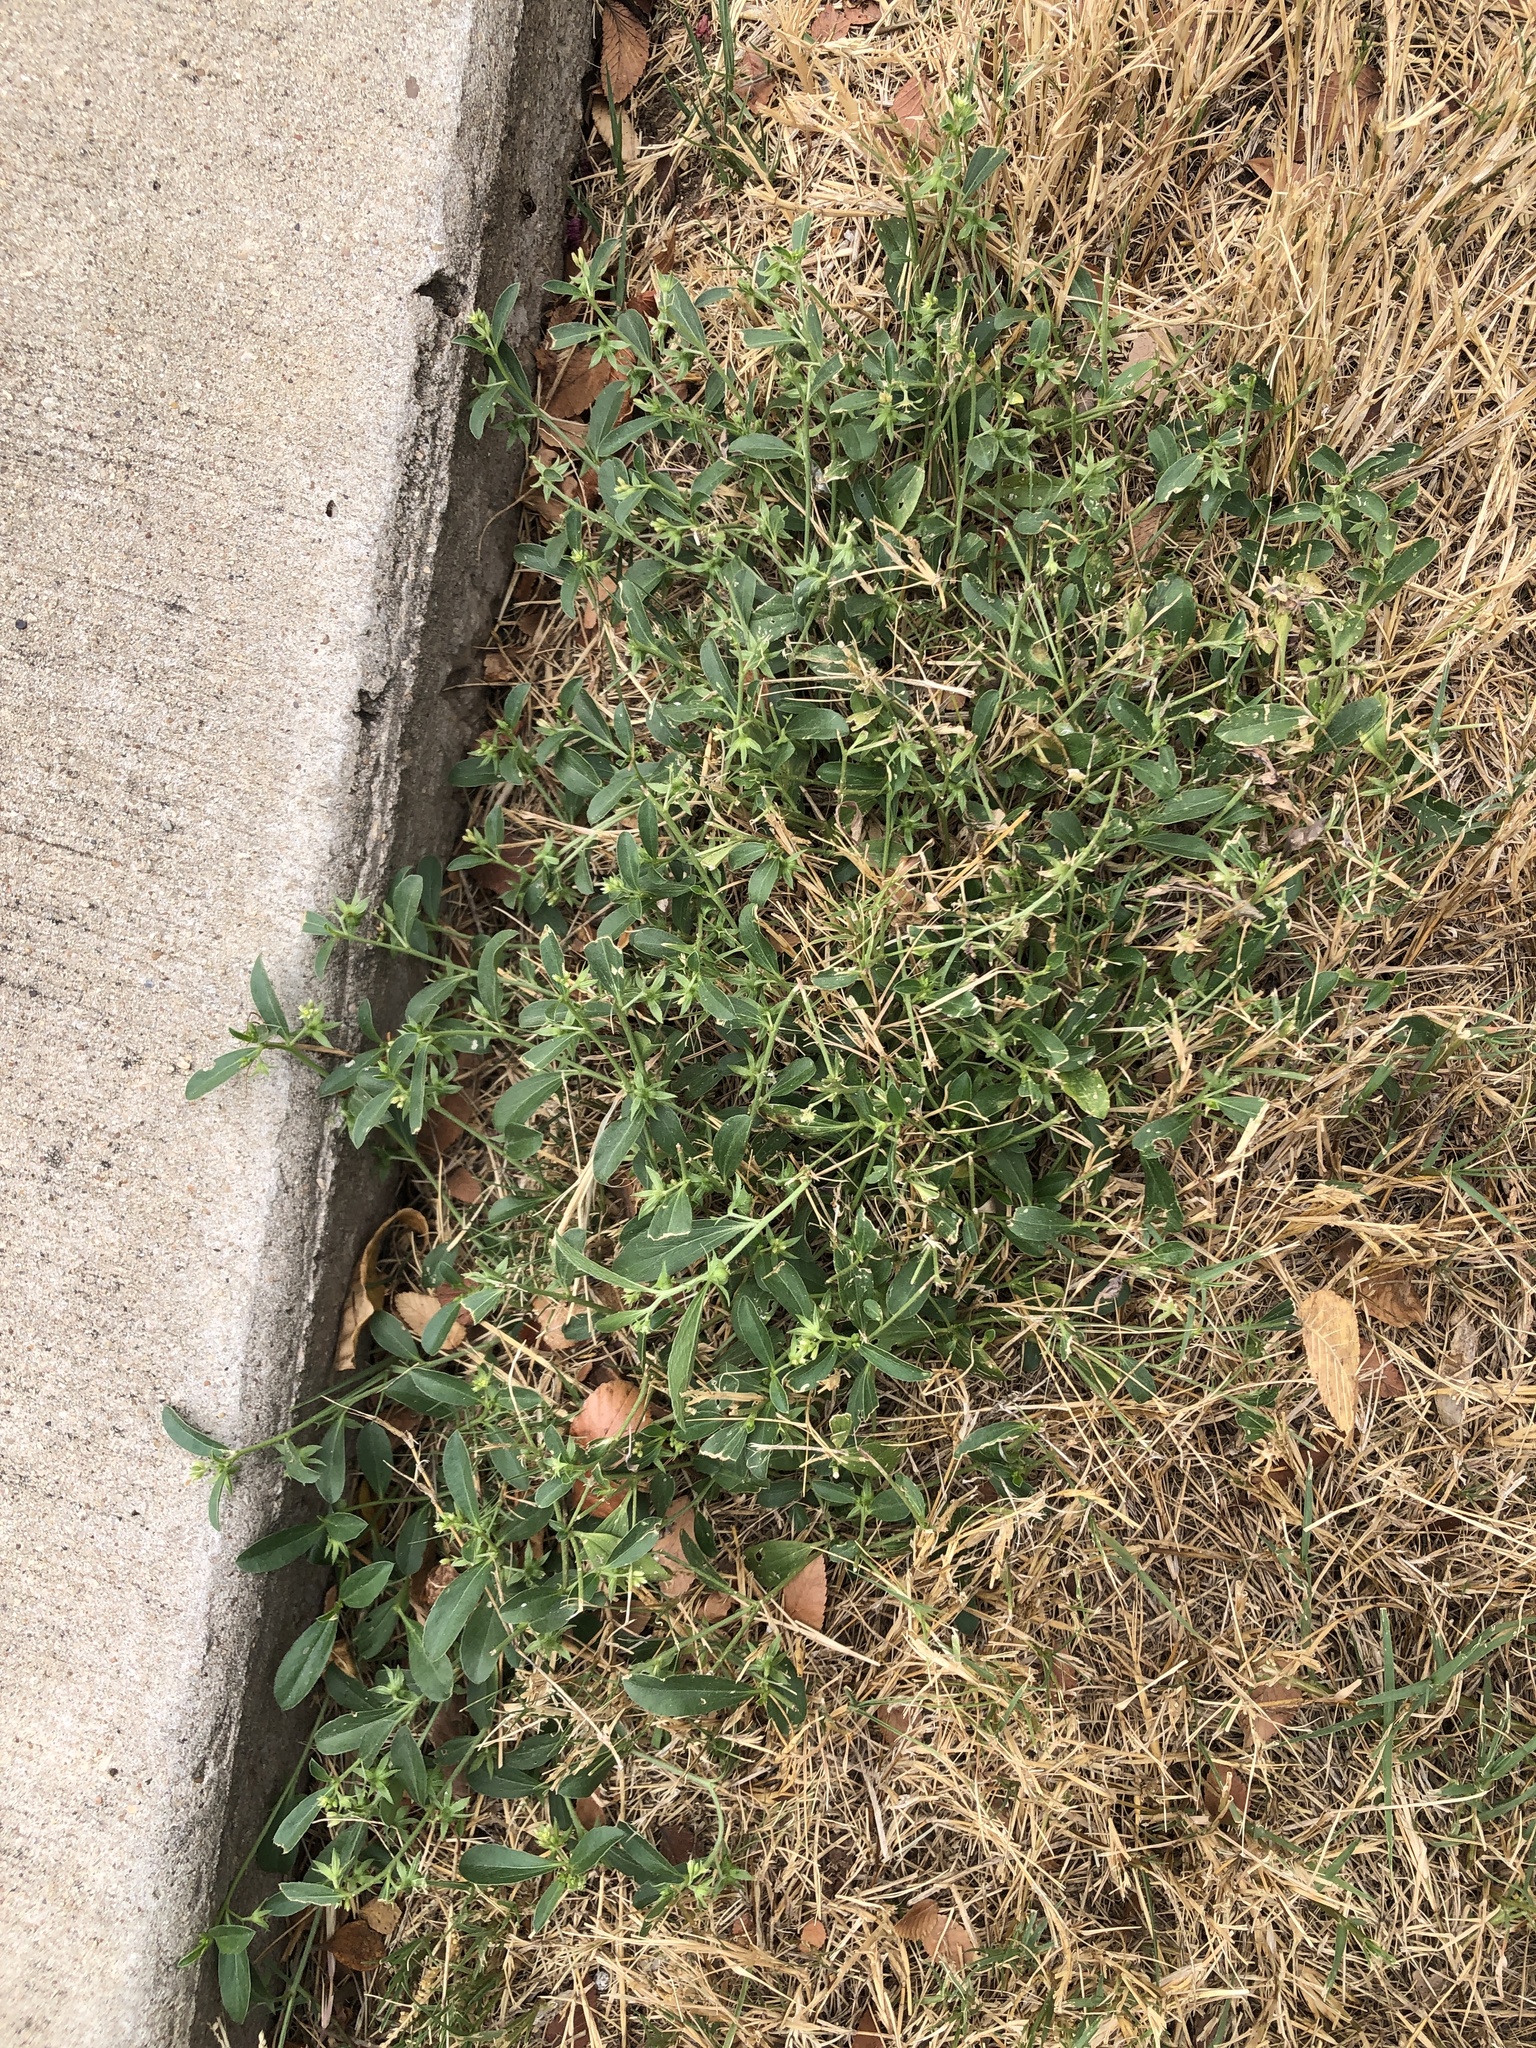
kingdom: Plantae
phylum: Tracheophyta
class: Magnoliopsida
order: Malpighiales
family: Euphorbiaceae
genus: Ditaxis
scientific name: Ditaxis humilis
